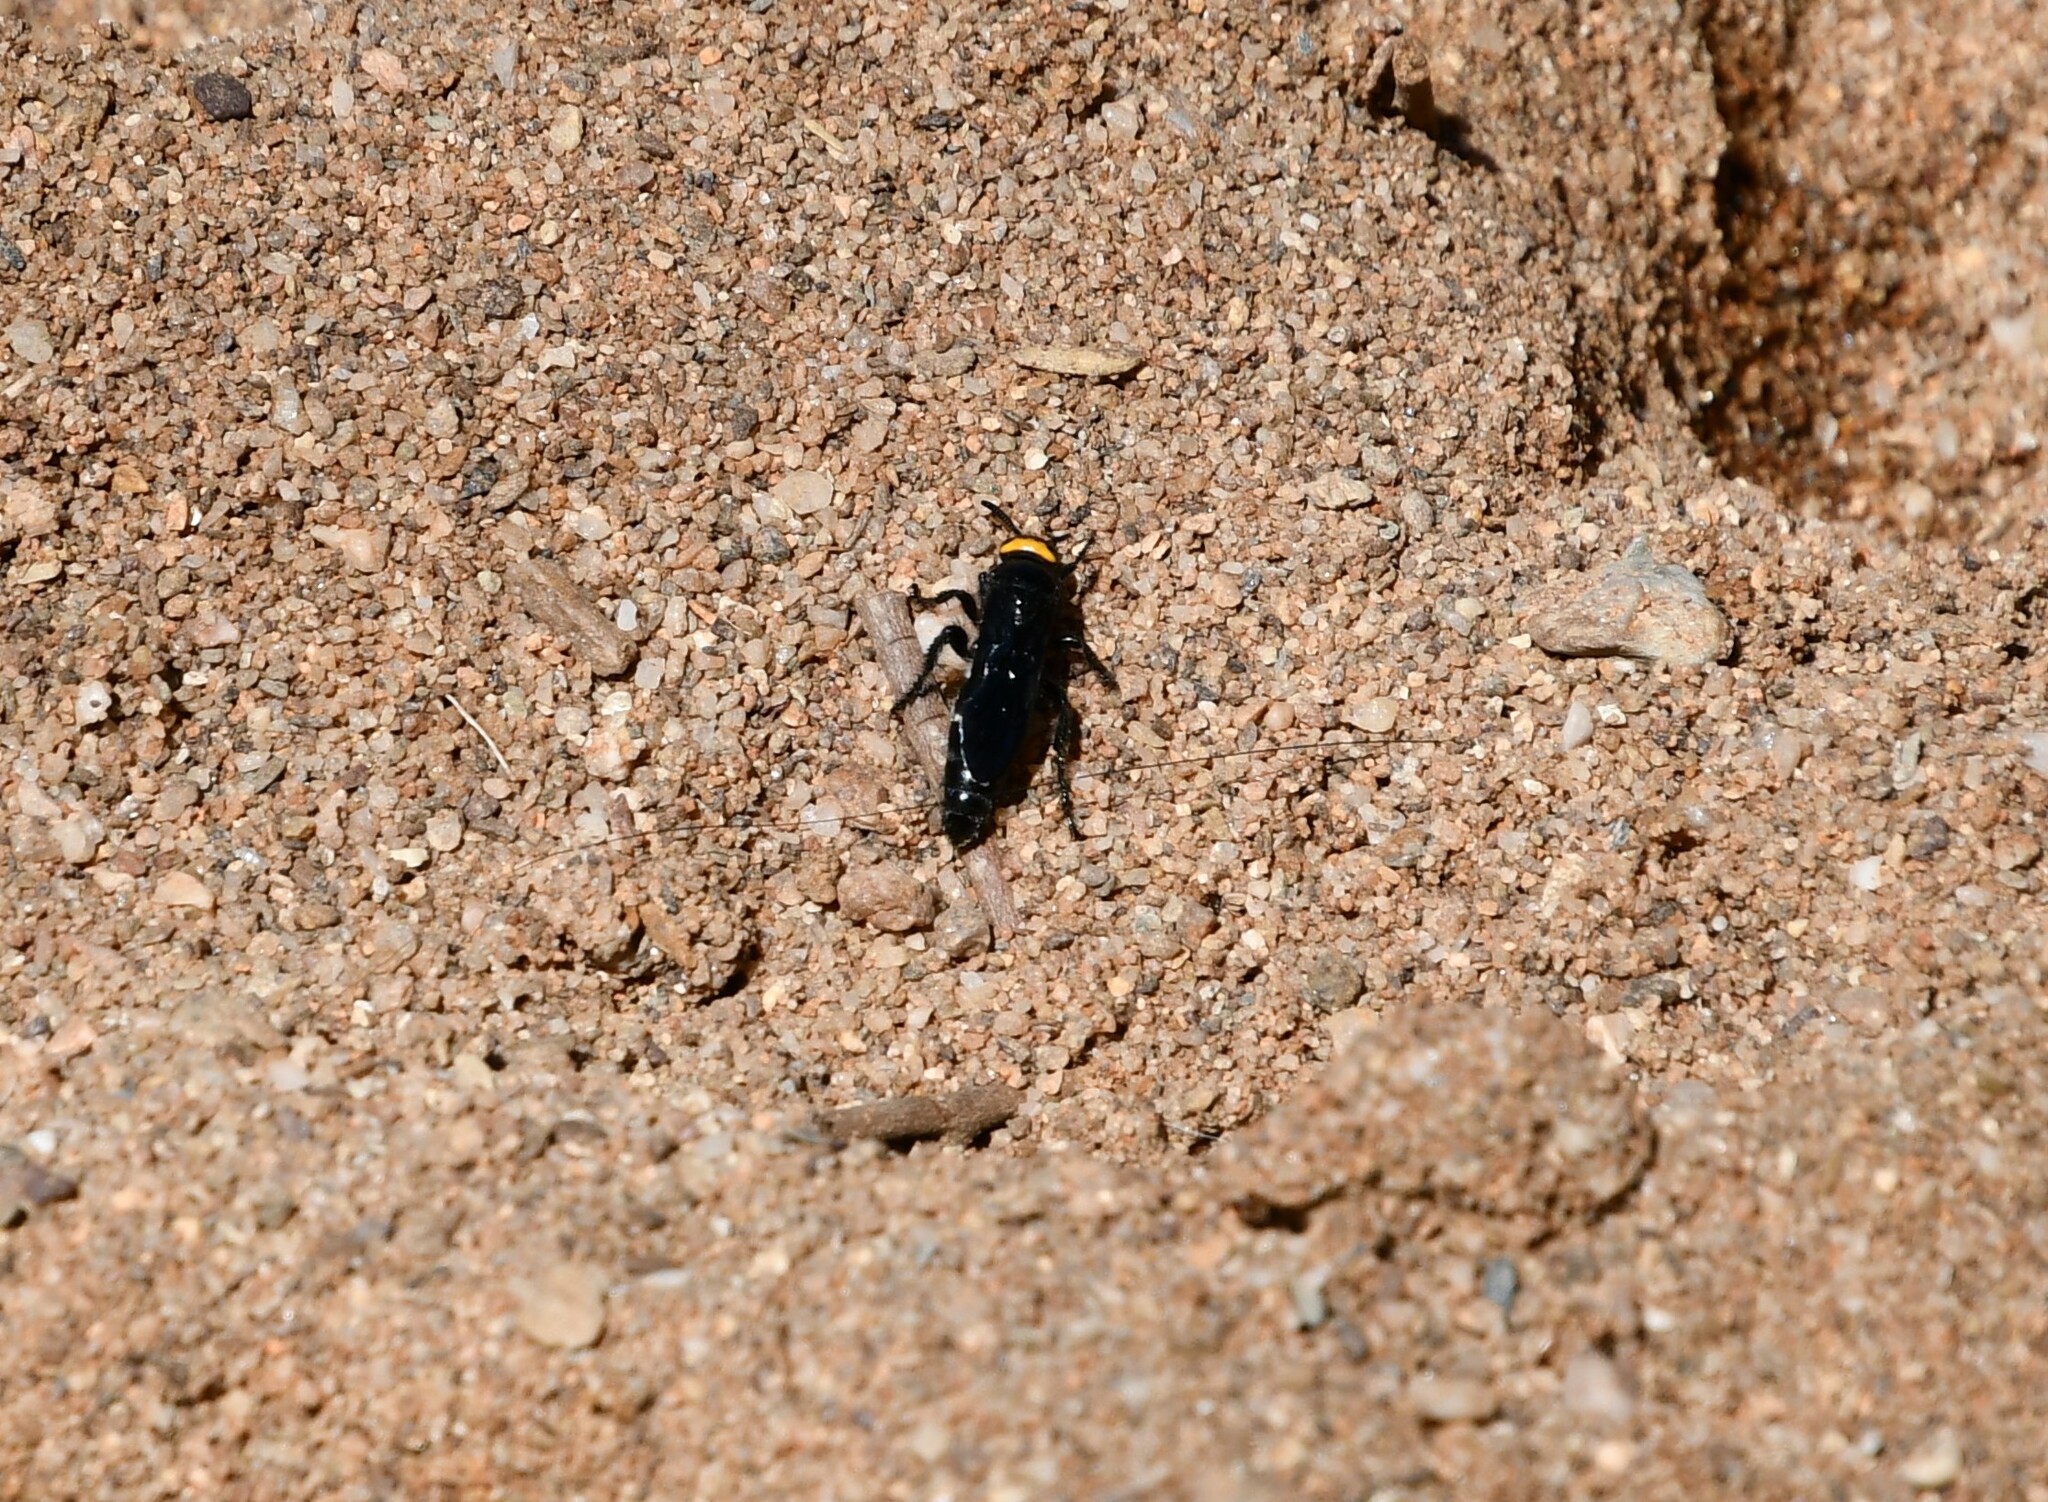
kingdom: Animalia
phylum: Arthropoda
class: Insecta
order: Hymenoptera
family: Scoliidae
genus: Scolia
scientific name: Scolia verticalis
